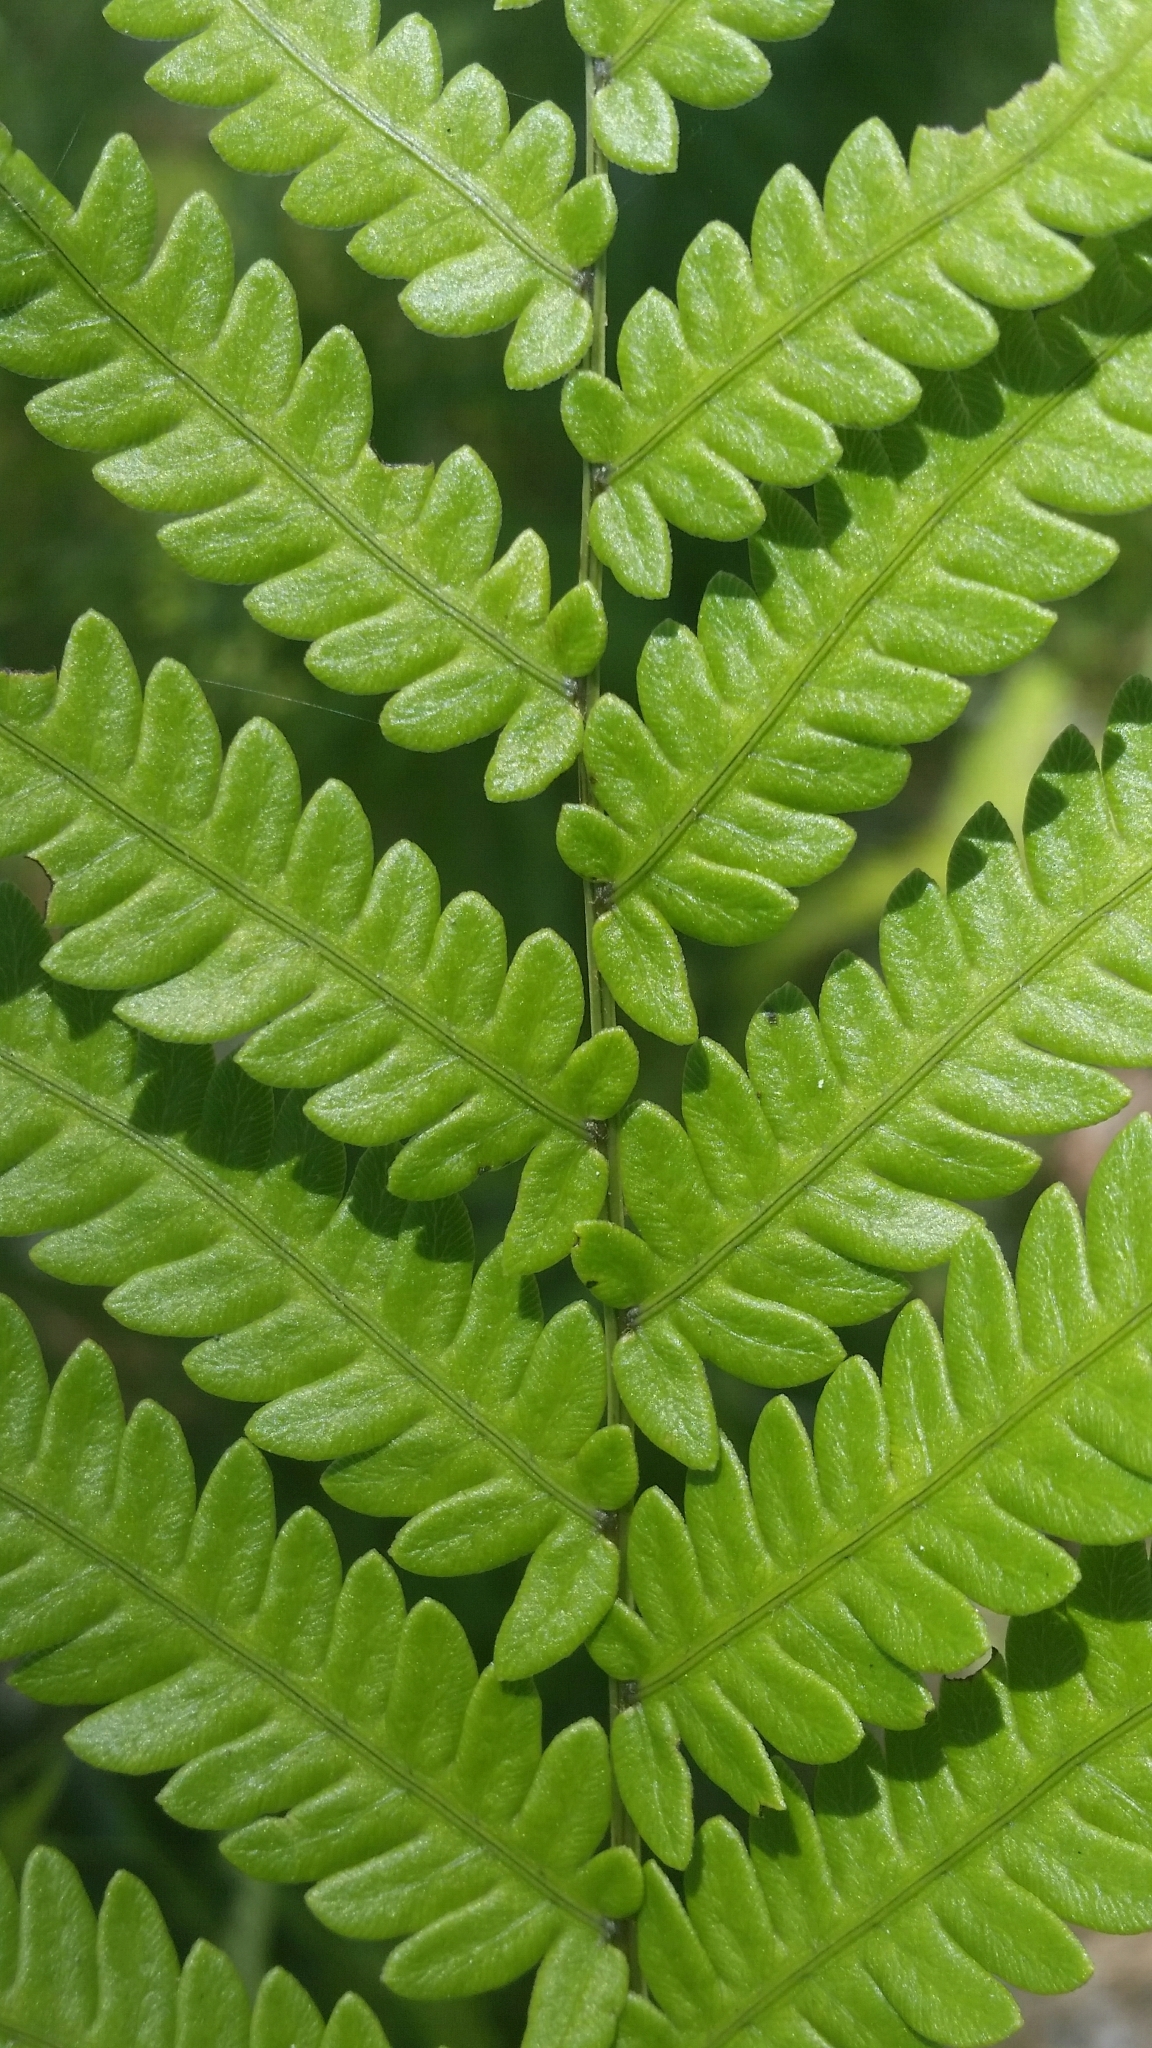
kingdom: Plantae
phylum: Tracheophyta
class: Polypodiopsida
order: Polypodiales
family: Blechnaceae
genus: Anchistea
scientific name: Anchistea virginica
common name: Virginia chain fern
